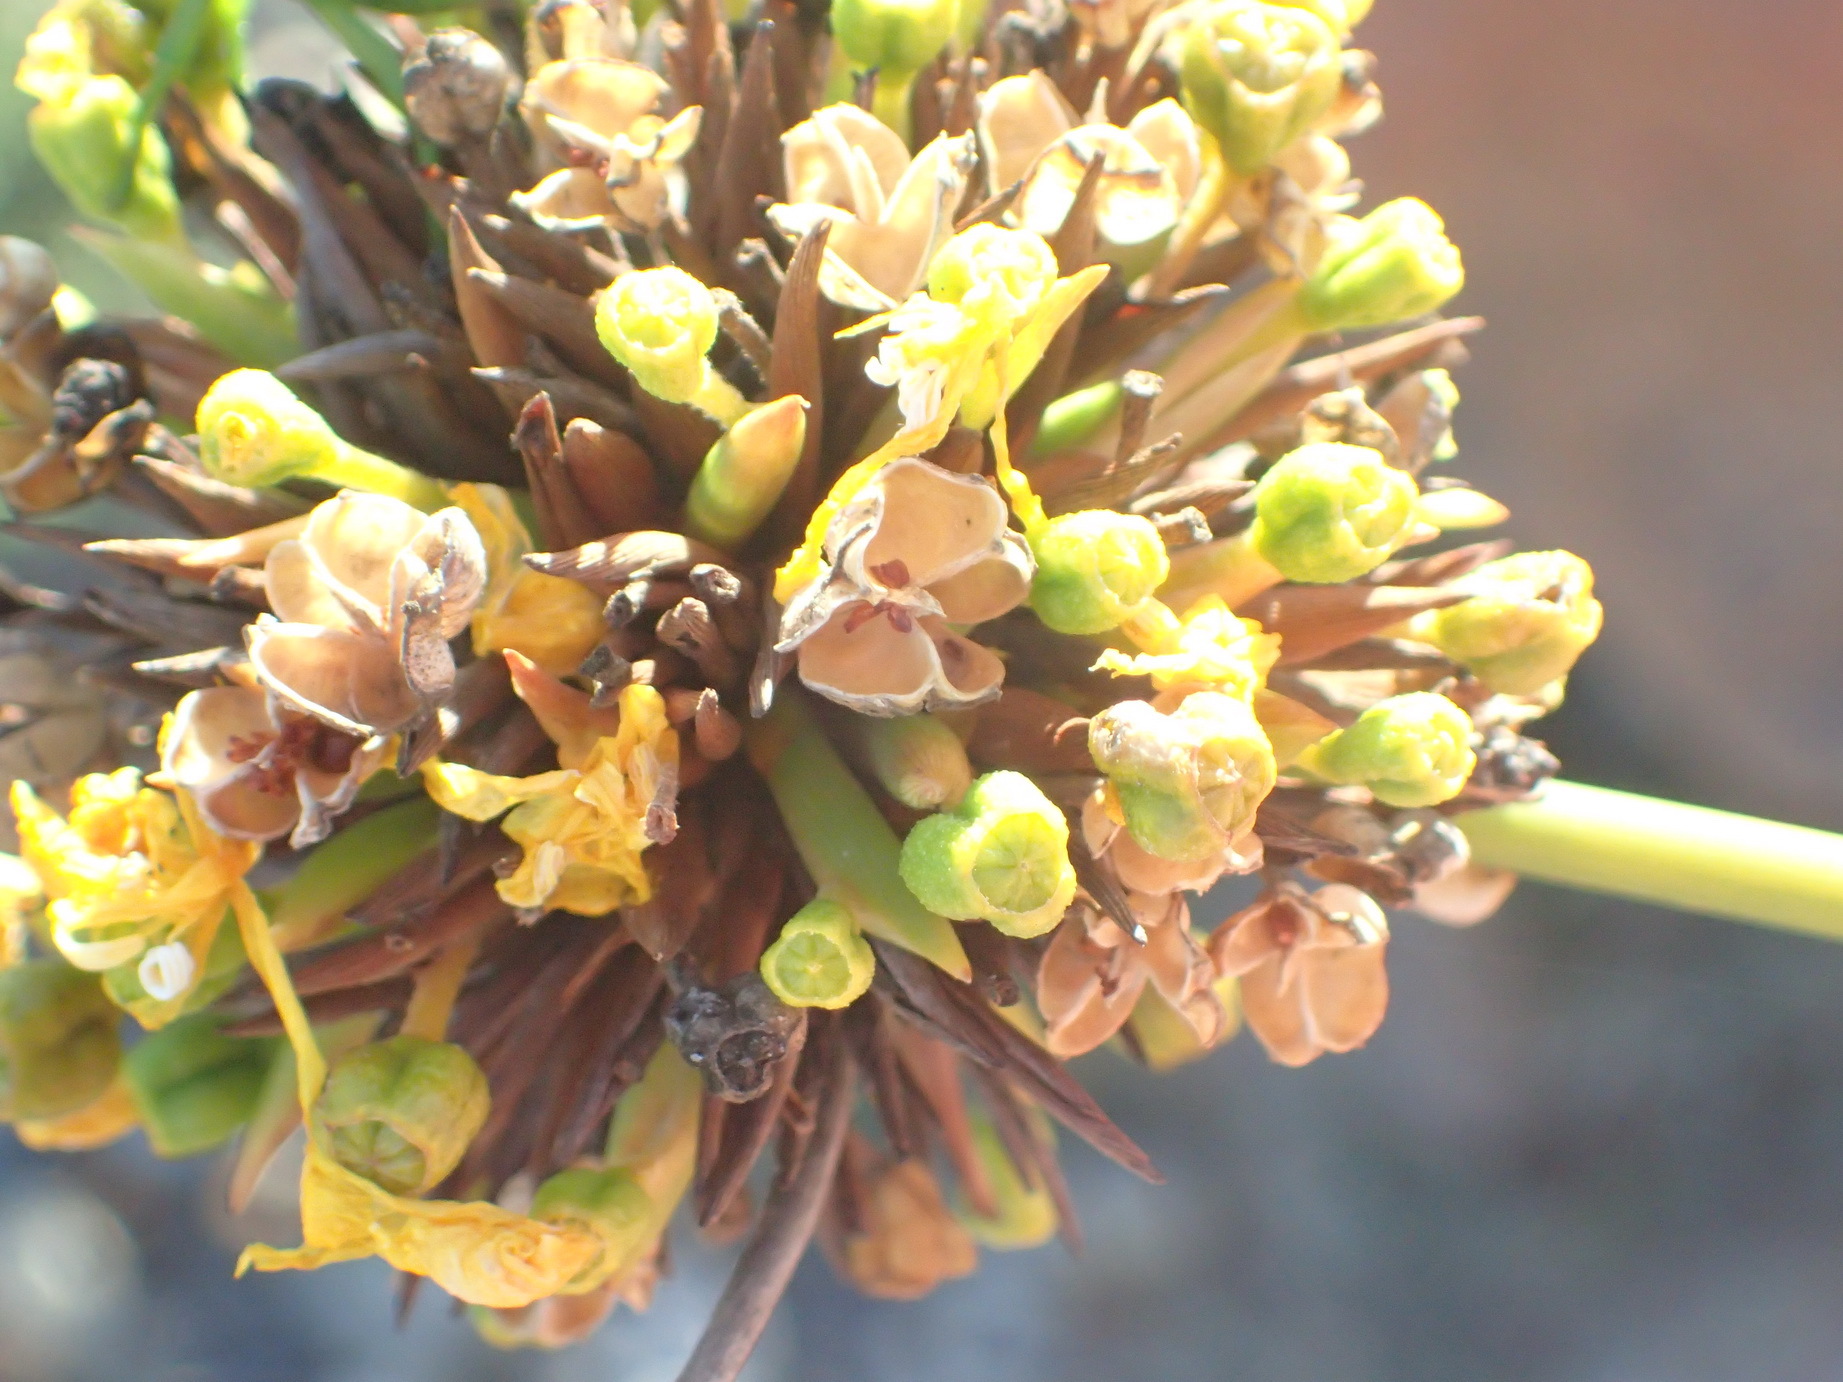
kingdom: Plantae
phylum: Tracheophyta
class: Liliopsida
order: Asparagales
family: Iridaceae
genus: Bobartia
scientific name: Bobartia orientalis
